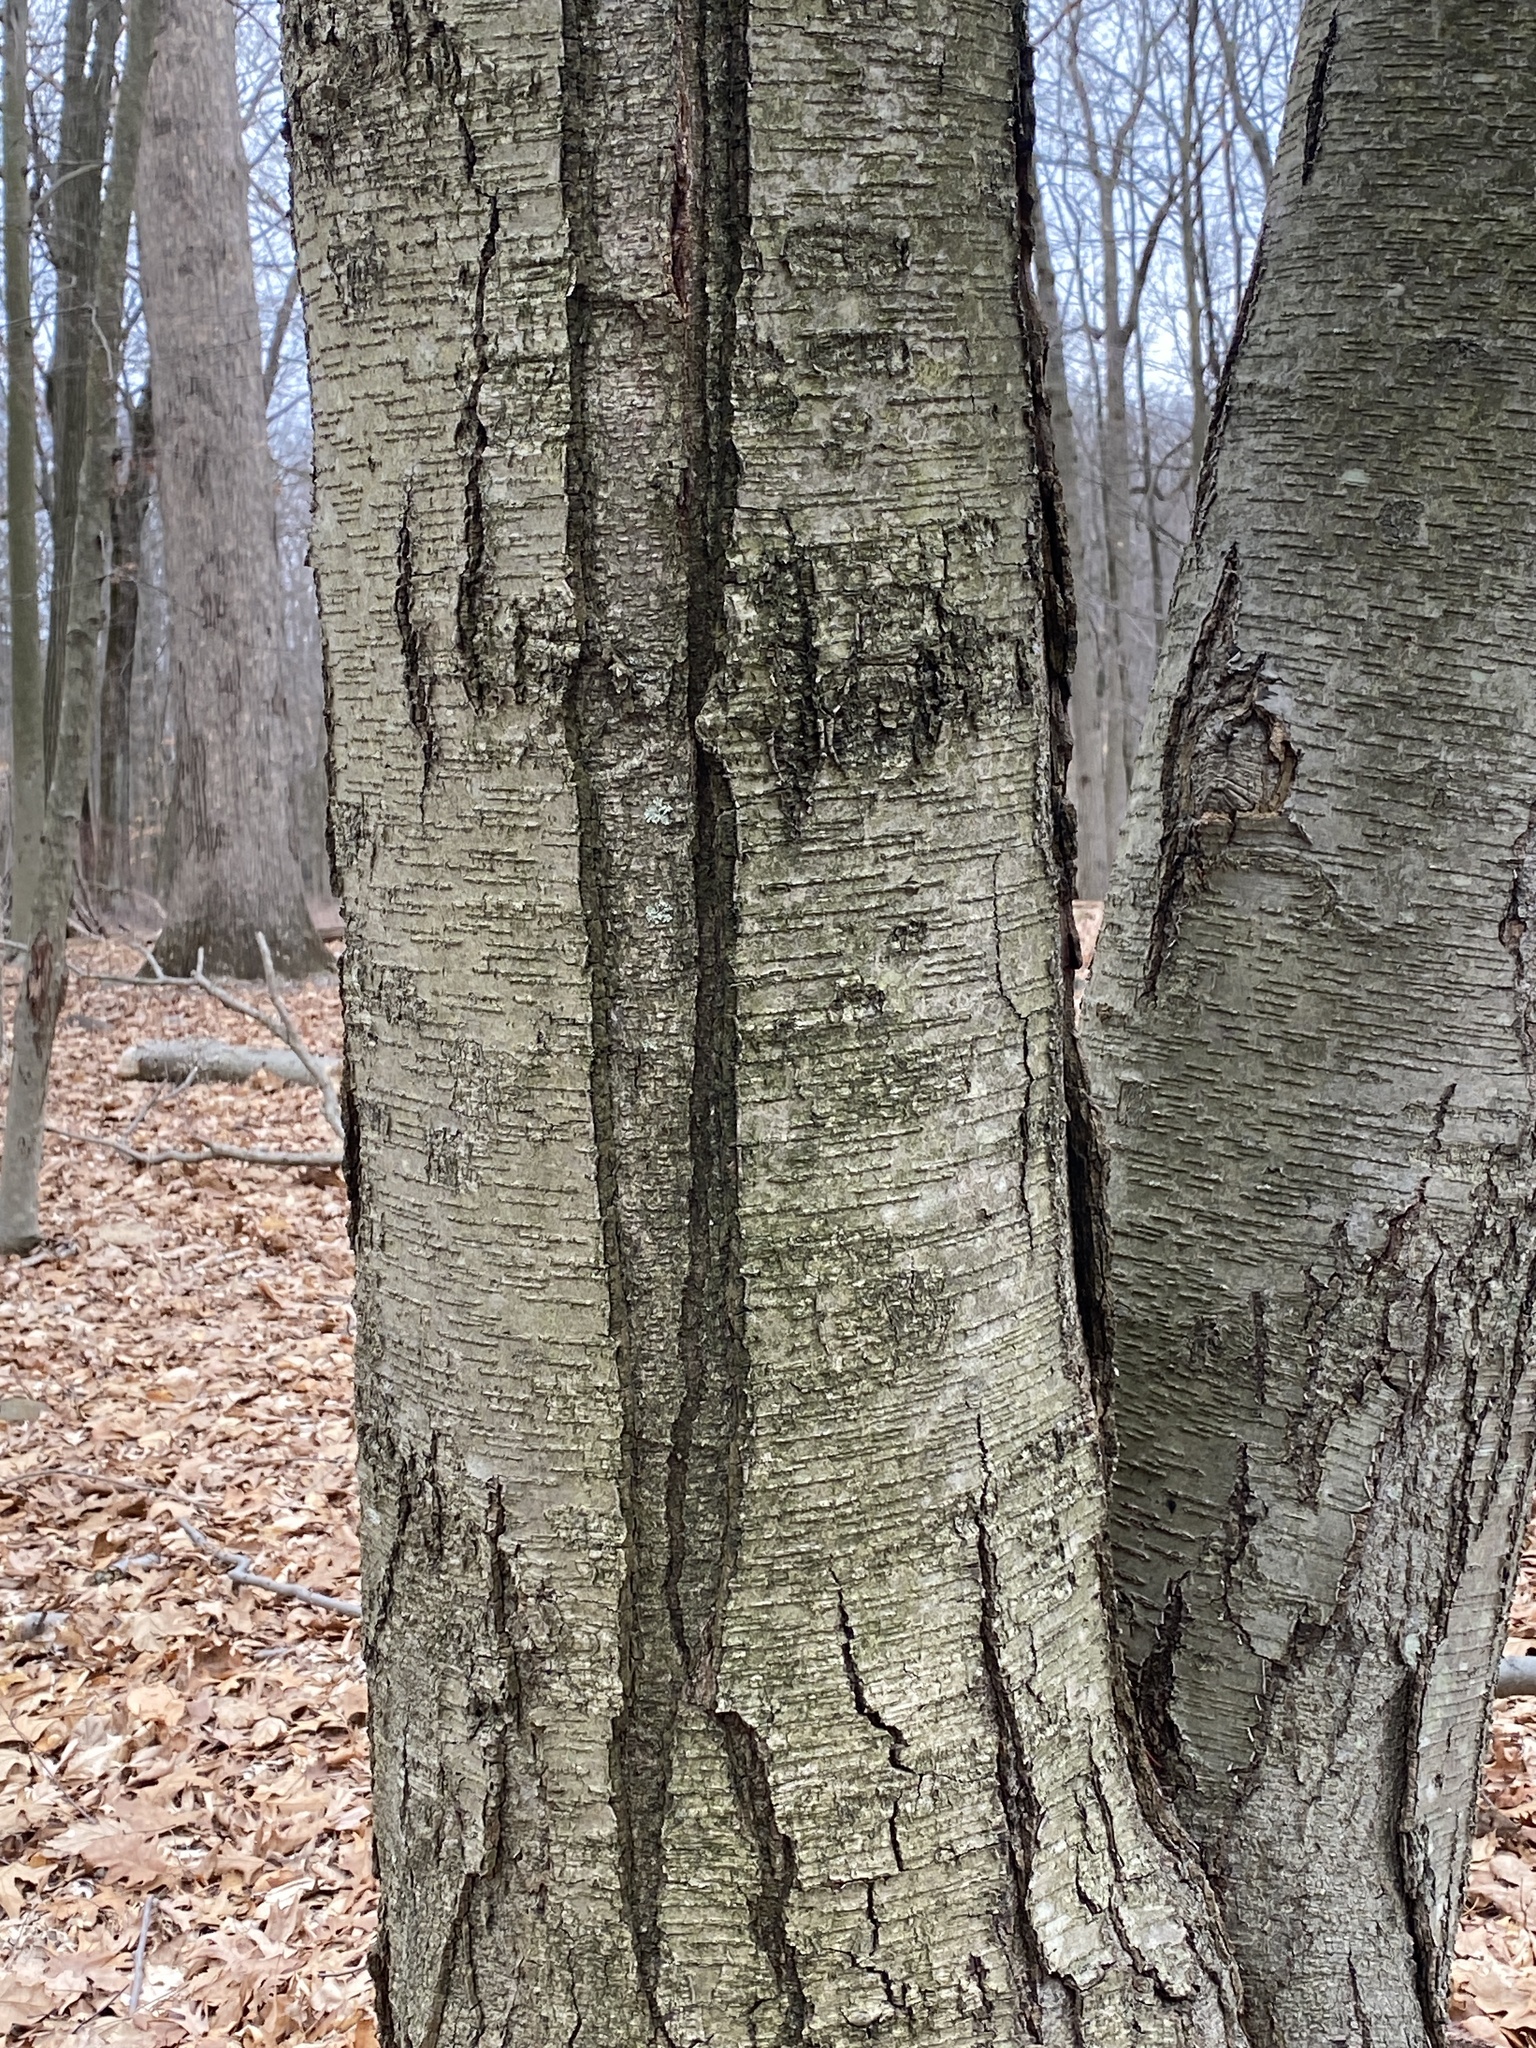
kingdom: Plantae
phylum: Tracheophyta
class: Magnoliopsida
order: Fagales
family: Betulaceae
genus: Betula
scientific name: Betula lenta
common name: Black birch
